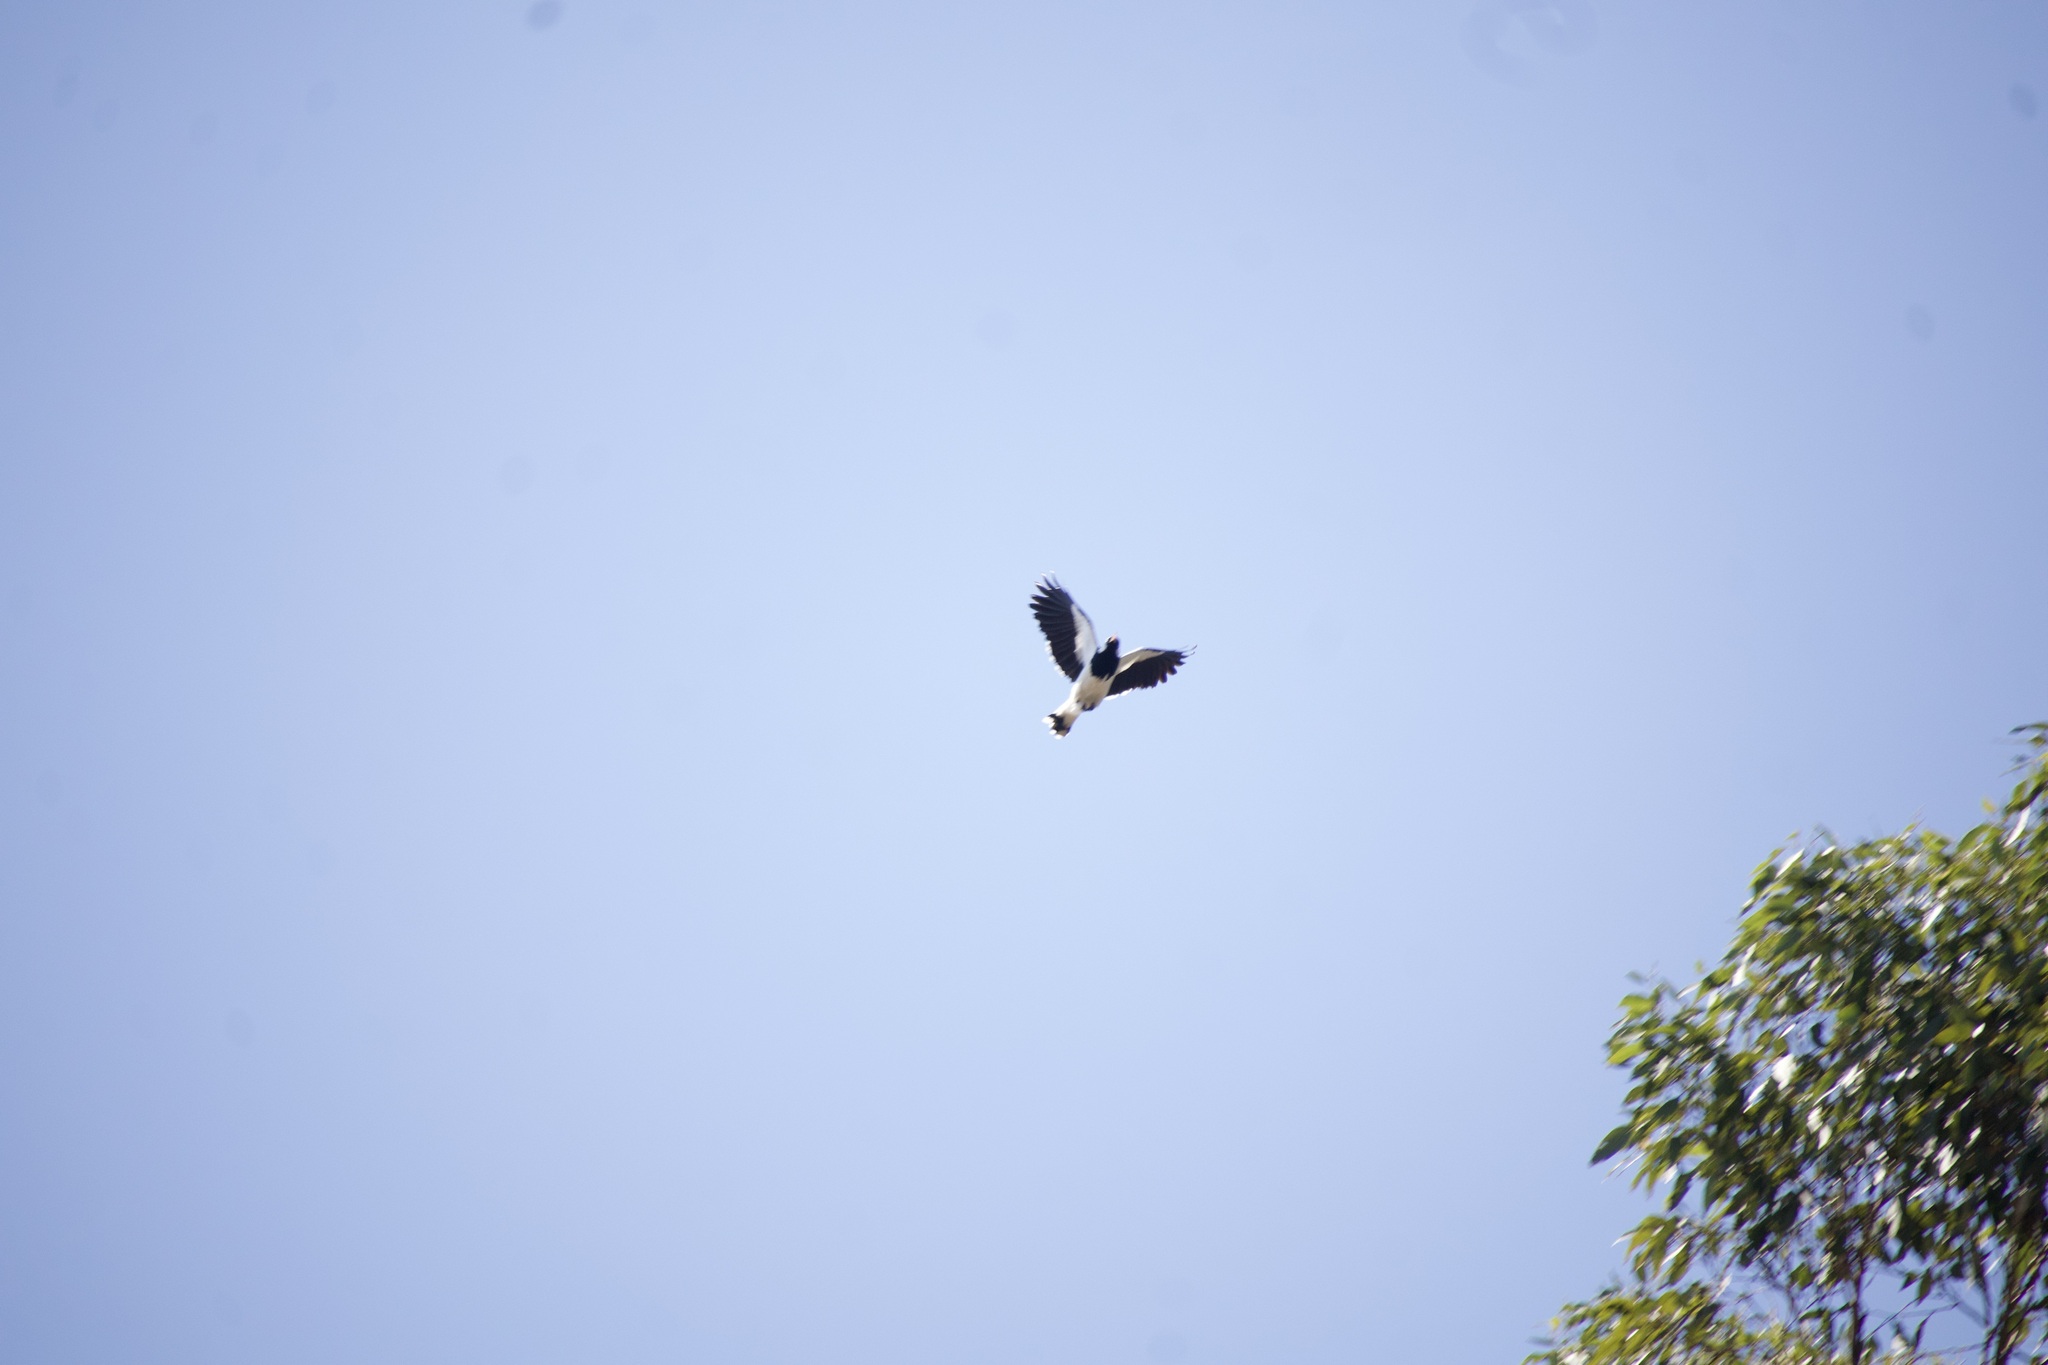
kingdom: Animalia
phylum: Chordata
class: Aves
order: Passeriformes
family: Monarchidae
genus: Grallina
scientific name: Grallina cyanoleuca
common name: Magpie-lark
